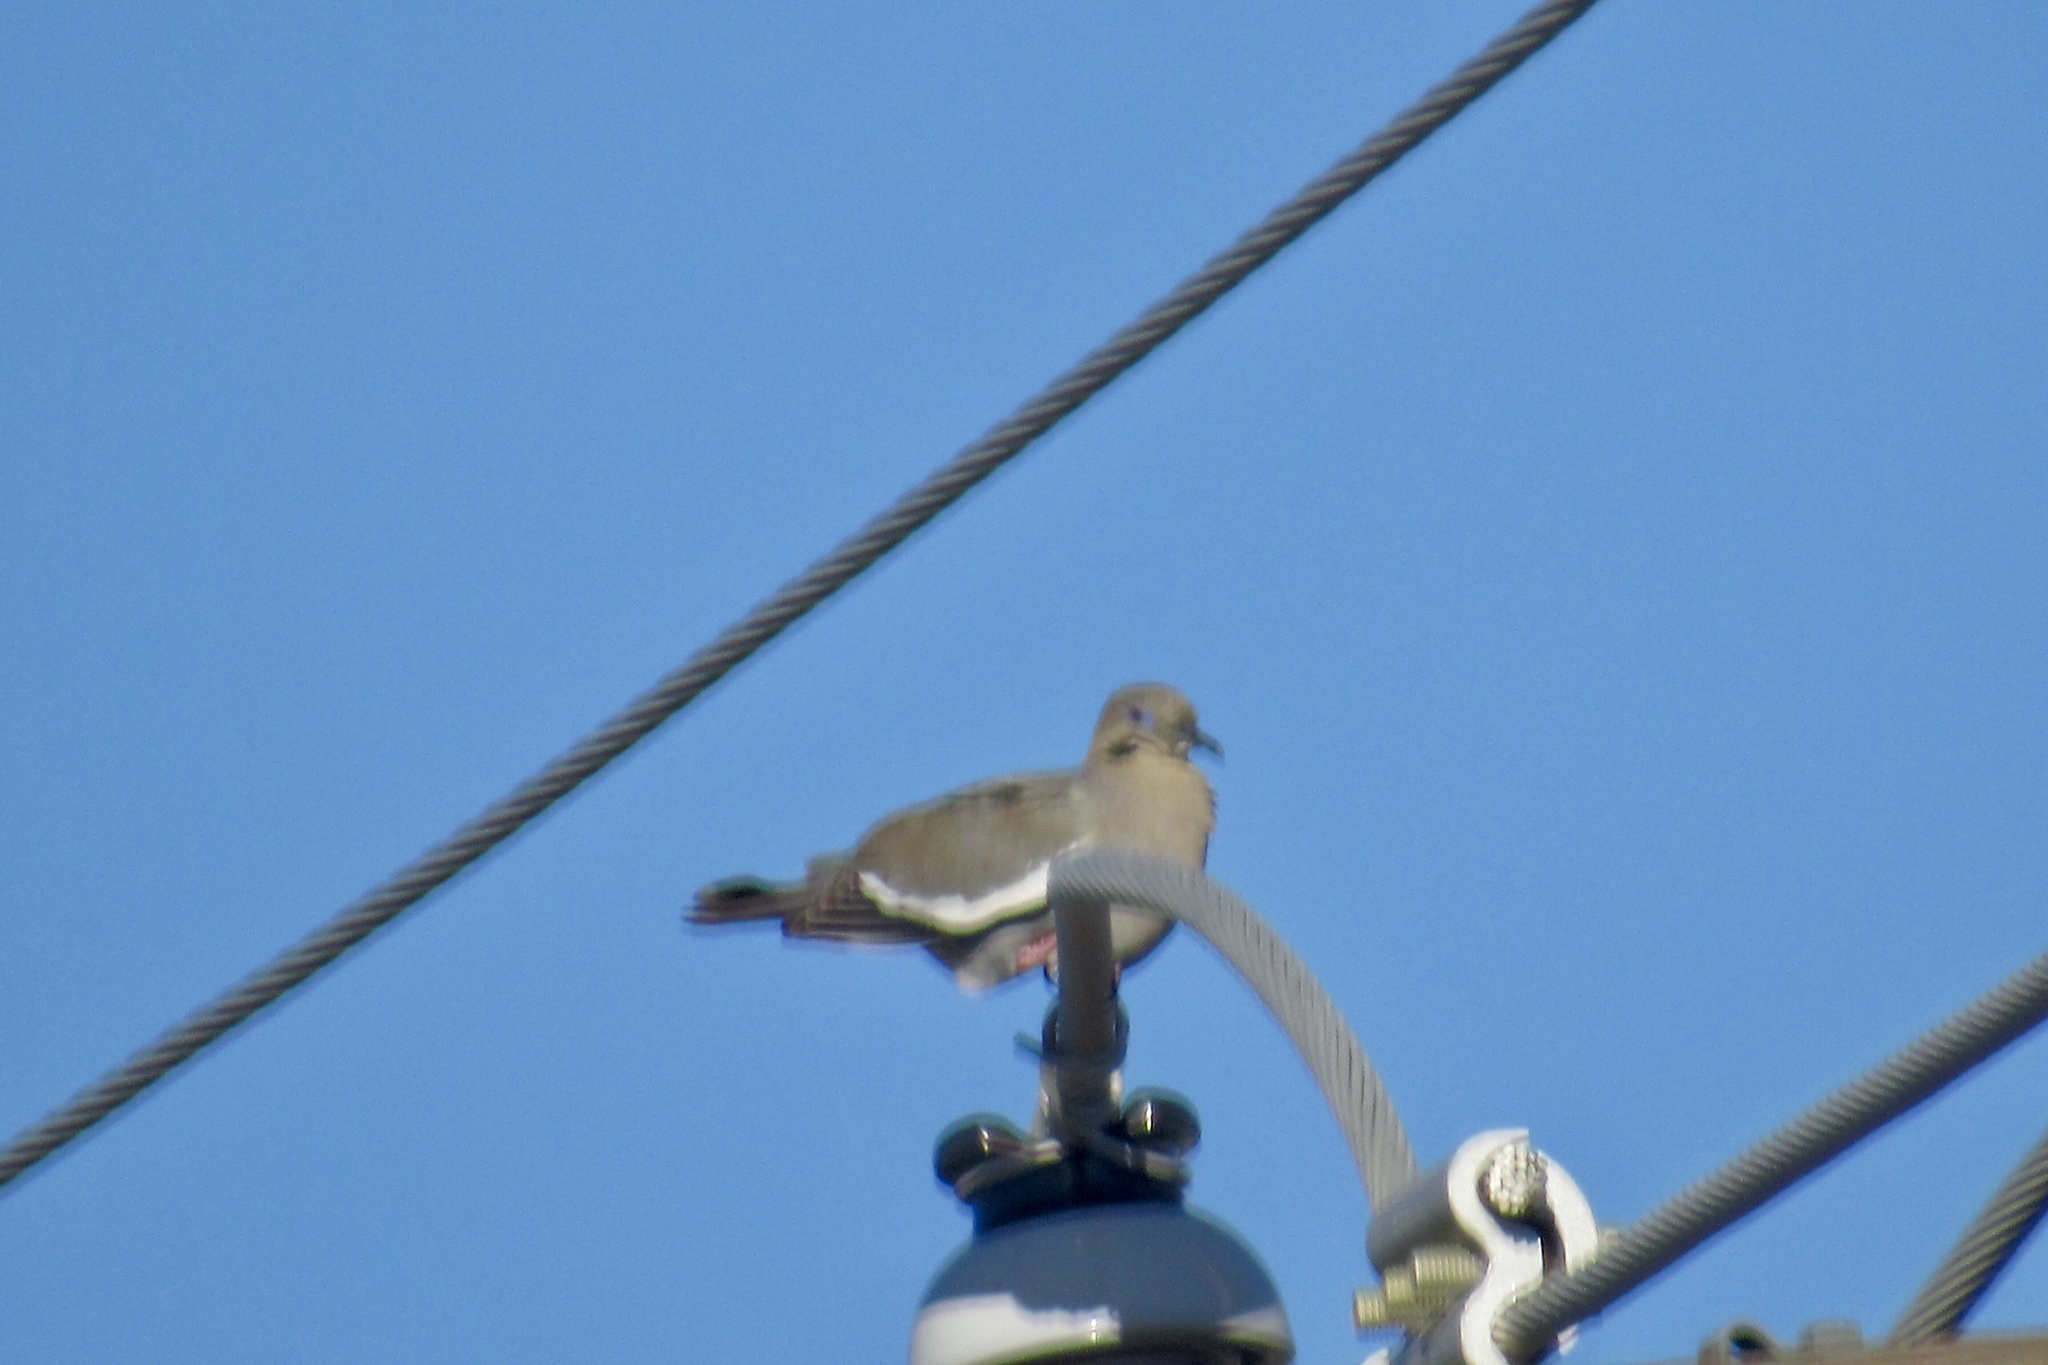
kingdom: Animalia
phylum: Chordata
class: Aves
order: Columbiformes
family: Columbidae
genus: Zenaida
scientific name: Zenaida asiatica
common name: White-winged dove
